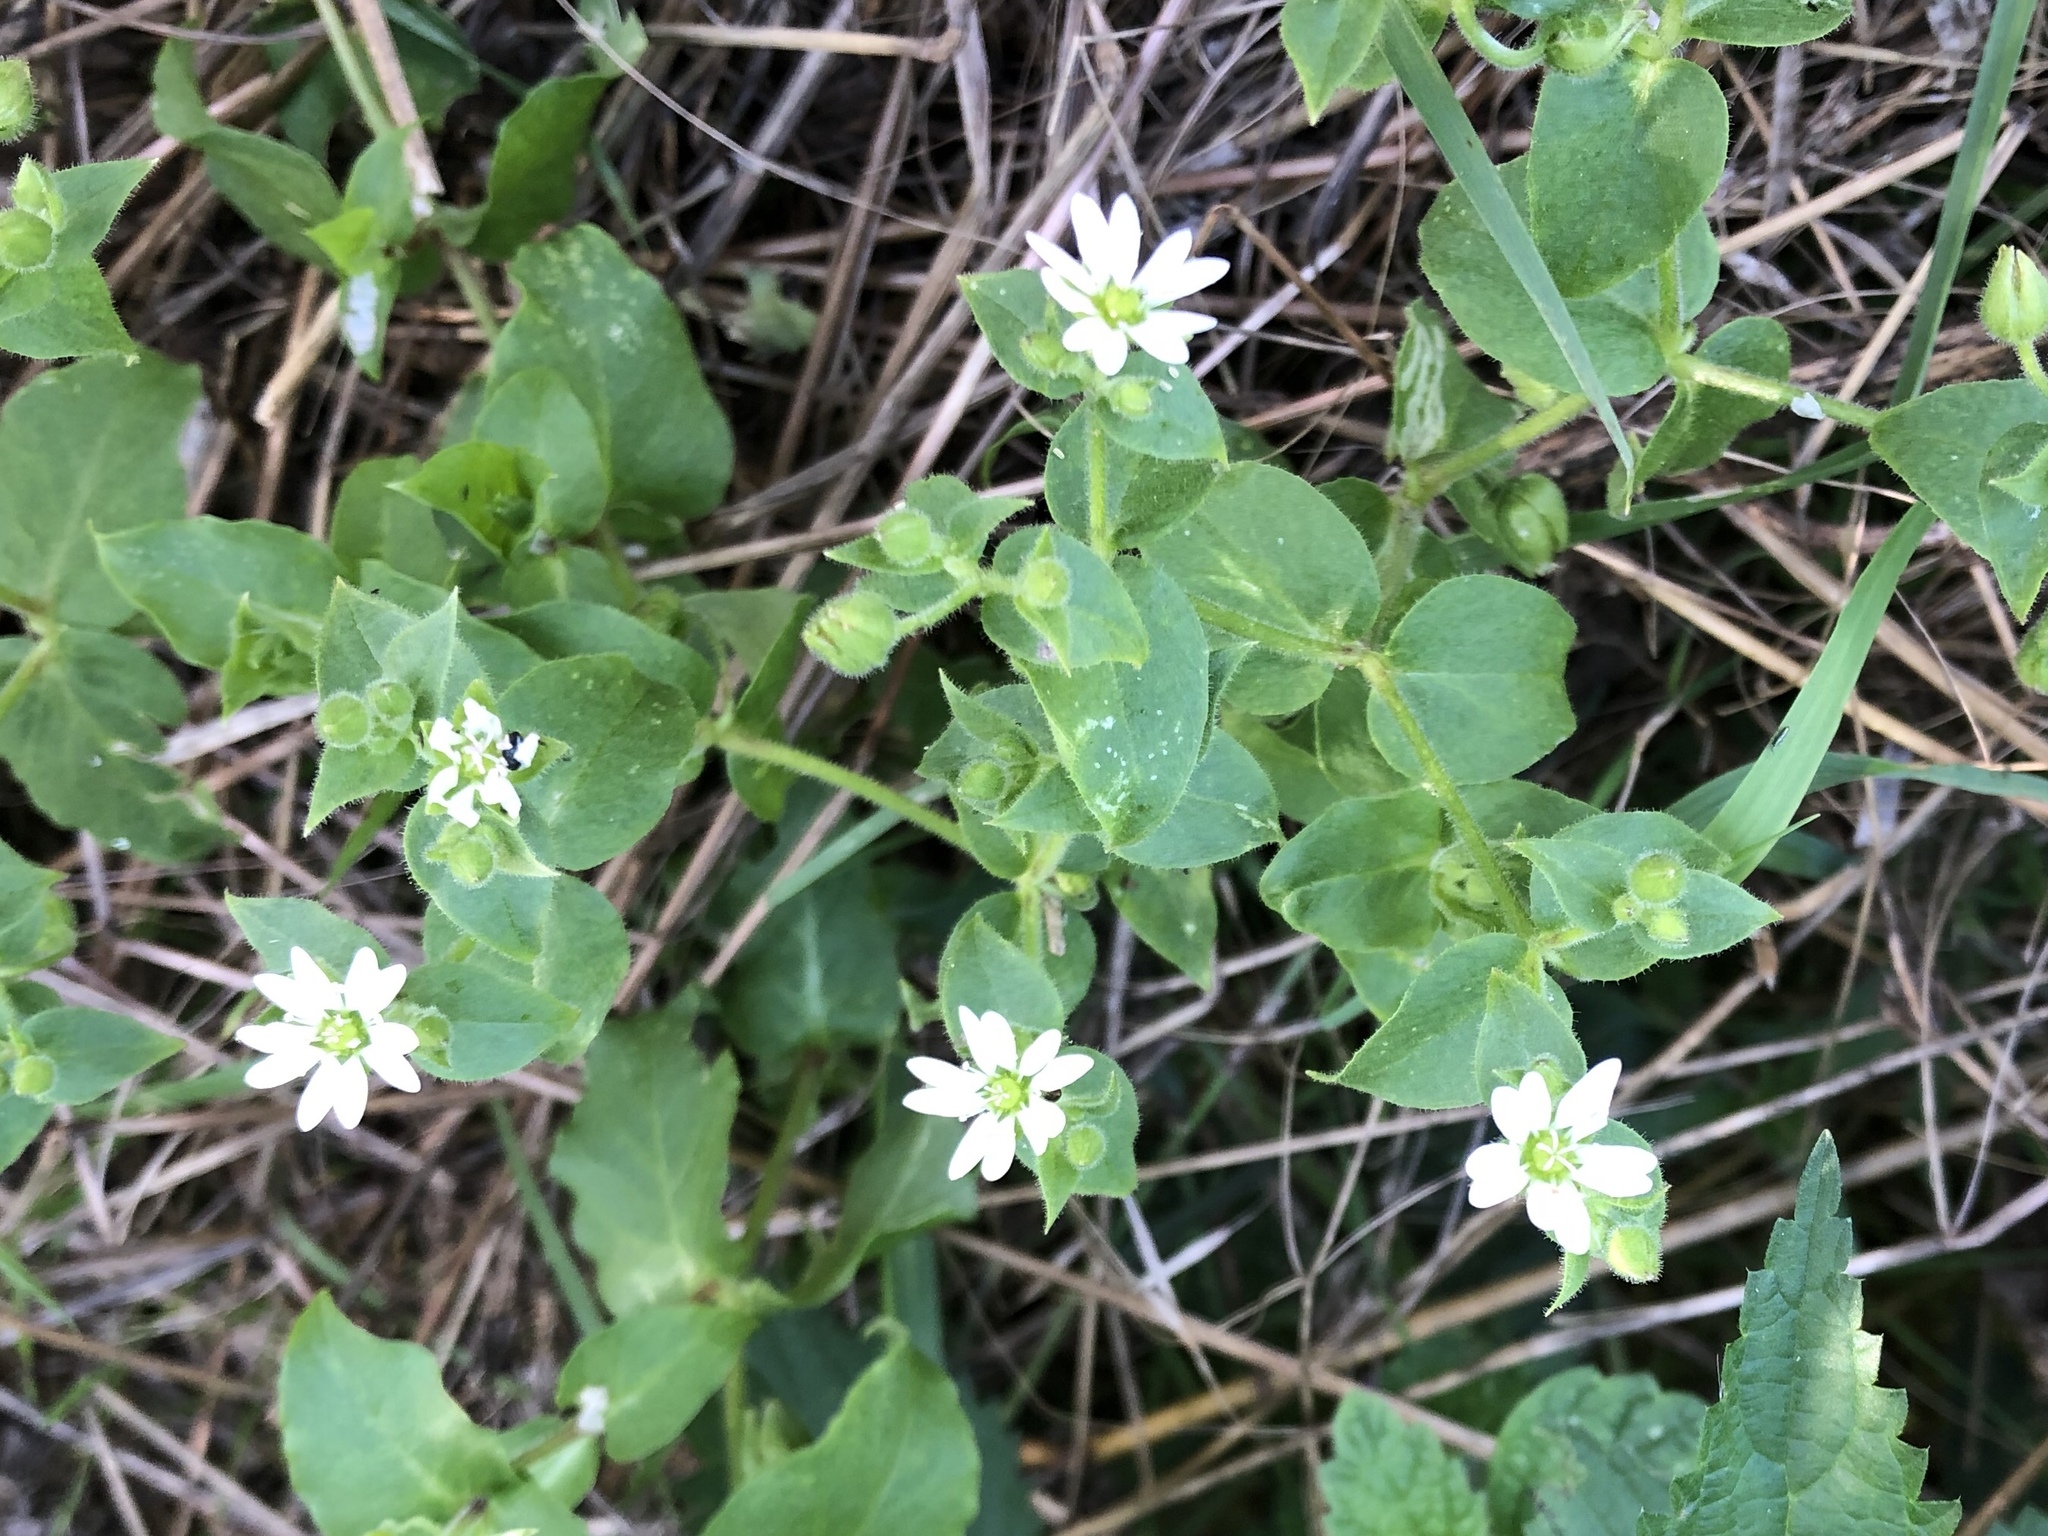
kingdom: Plantae
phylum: Tracheophyta
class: Magnoliopsida
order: Caryophyllales
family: Caryophyllaceae
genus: Stellaria
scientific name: Stellaria aquatica
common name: Water chickweed
